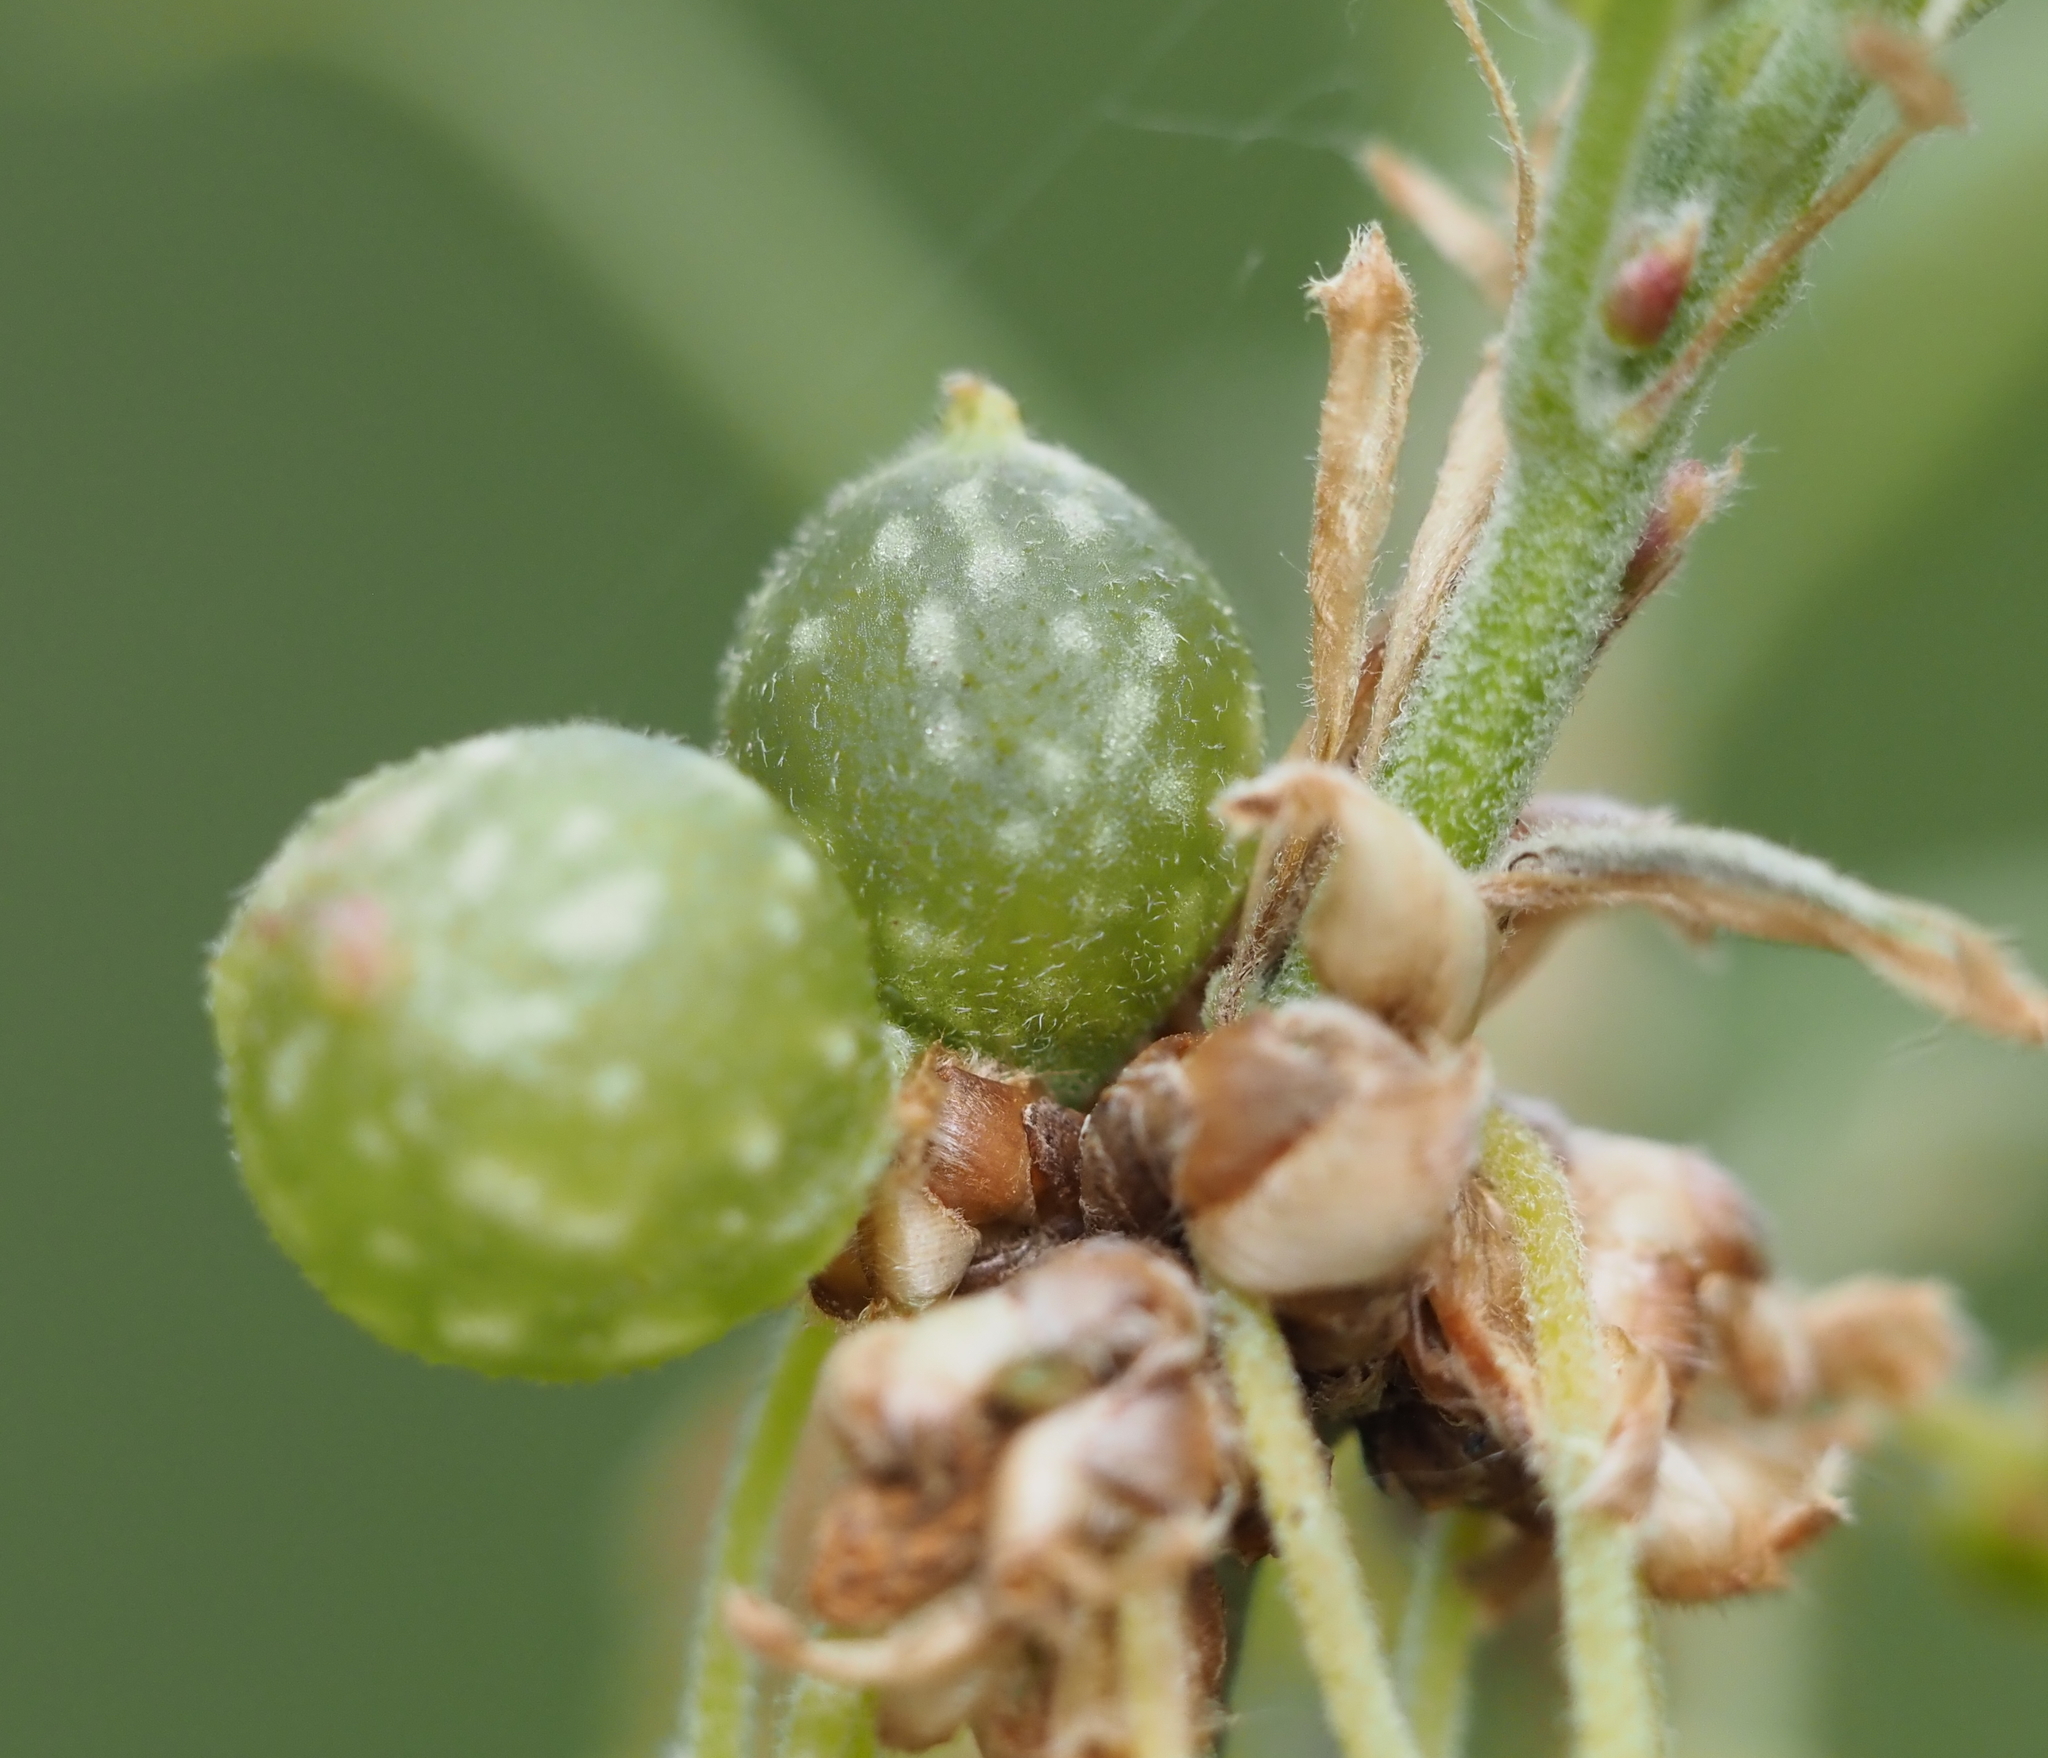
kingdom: Animalia
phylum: Arthropoda
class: Insecta
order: Hymenoptera
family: Cynipidae
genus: Dryocosmus
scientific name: Dryocosmus quercuspalustris
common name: Succulent oak gall wasp
